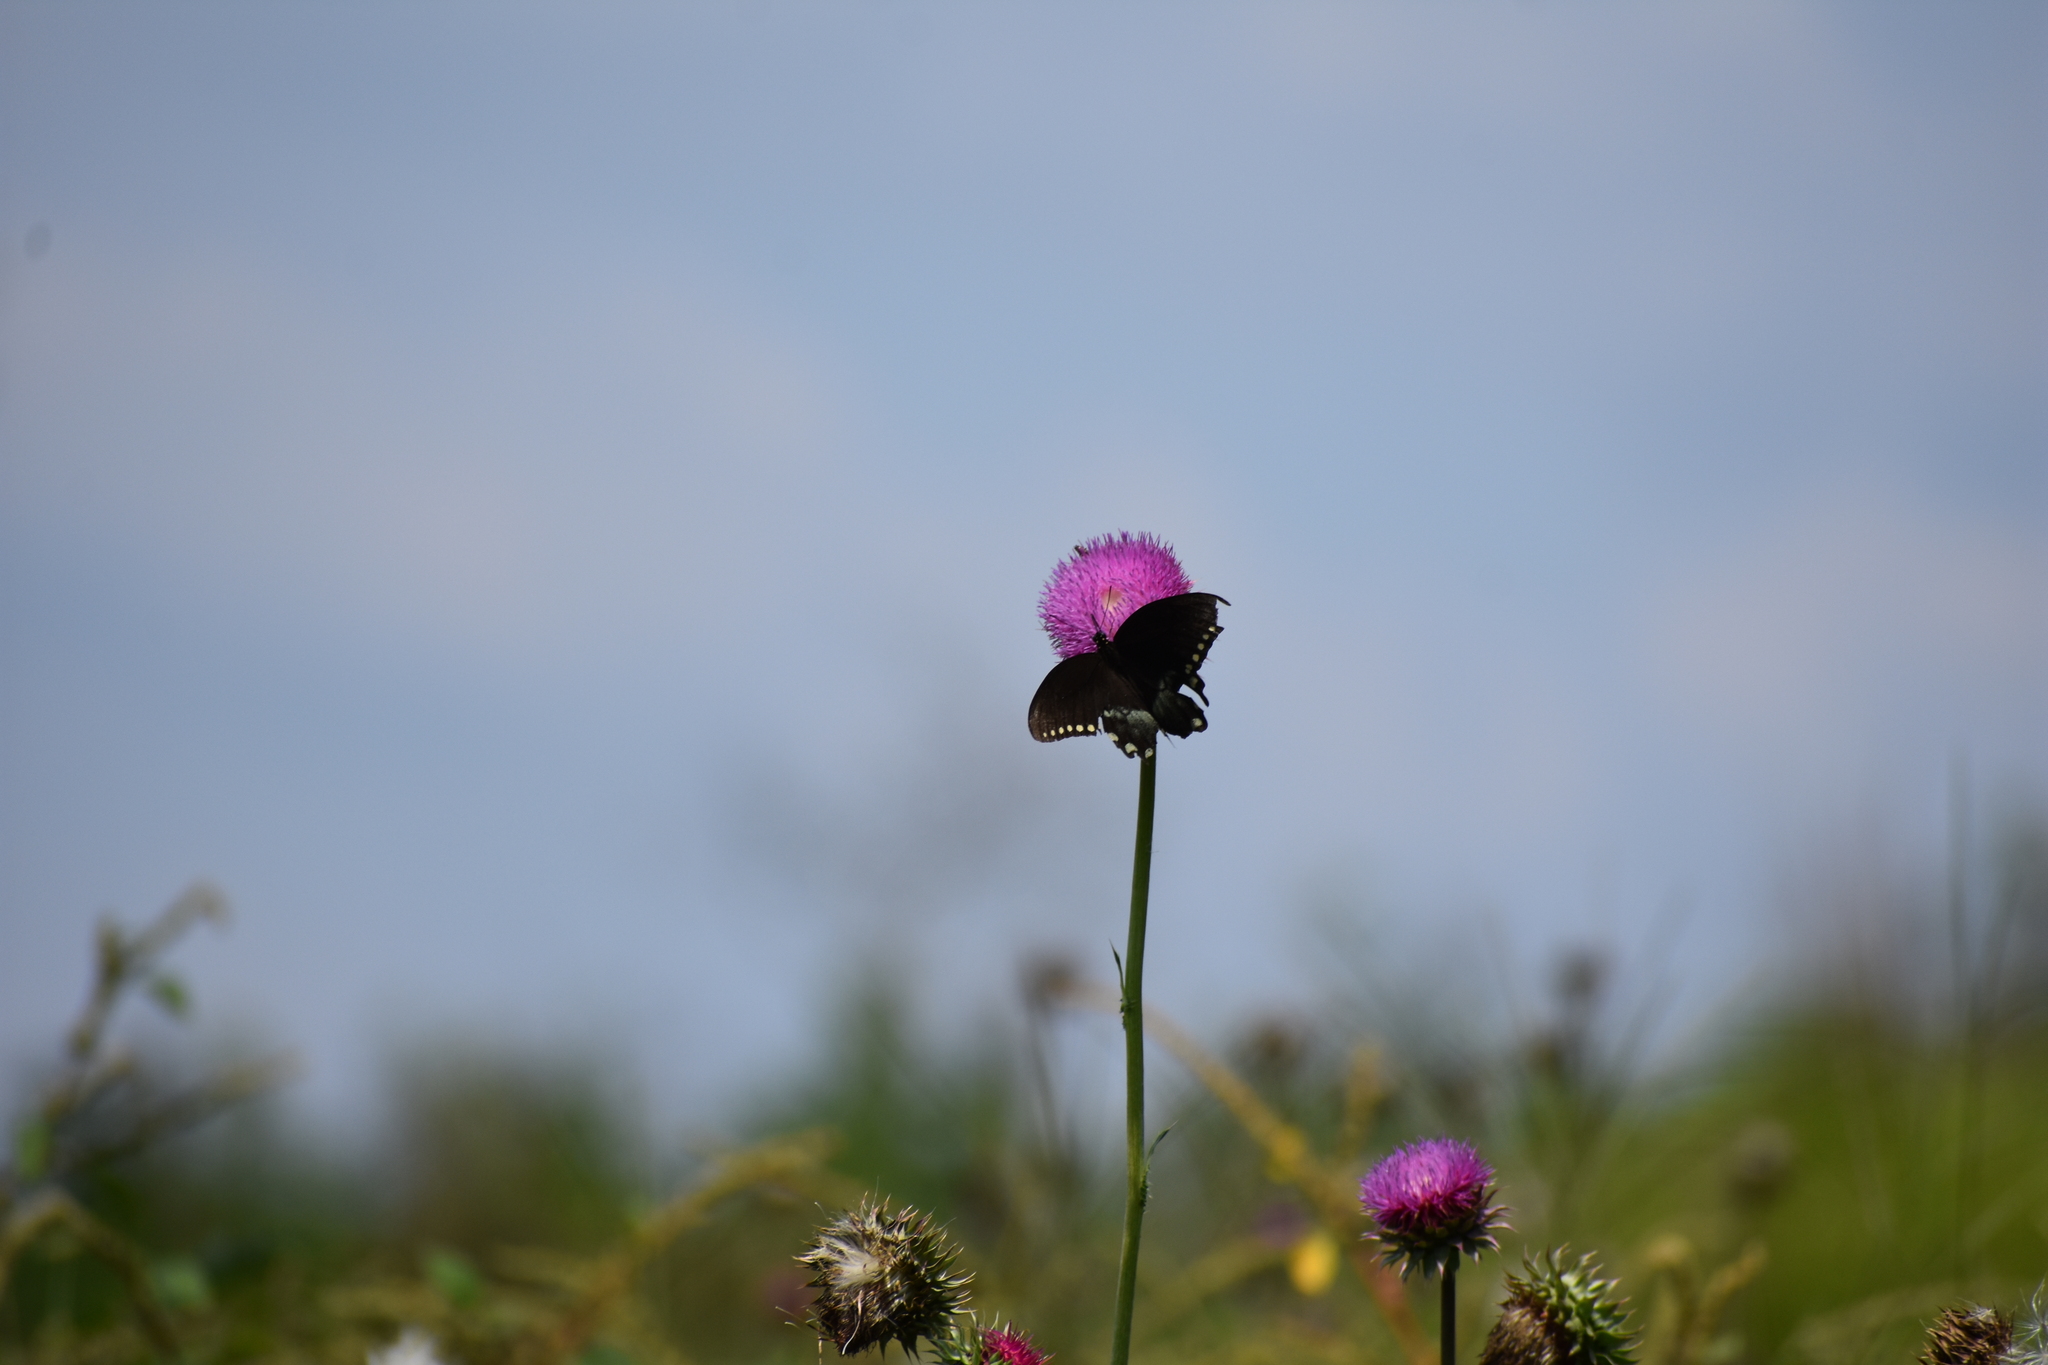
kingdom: Animalia
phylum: Arthropoda
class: Insecta
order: Lepidoptera
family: Papilionidae
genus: Papilio
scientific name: Papilio troilus
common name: Spicebush swallowtail
